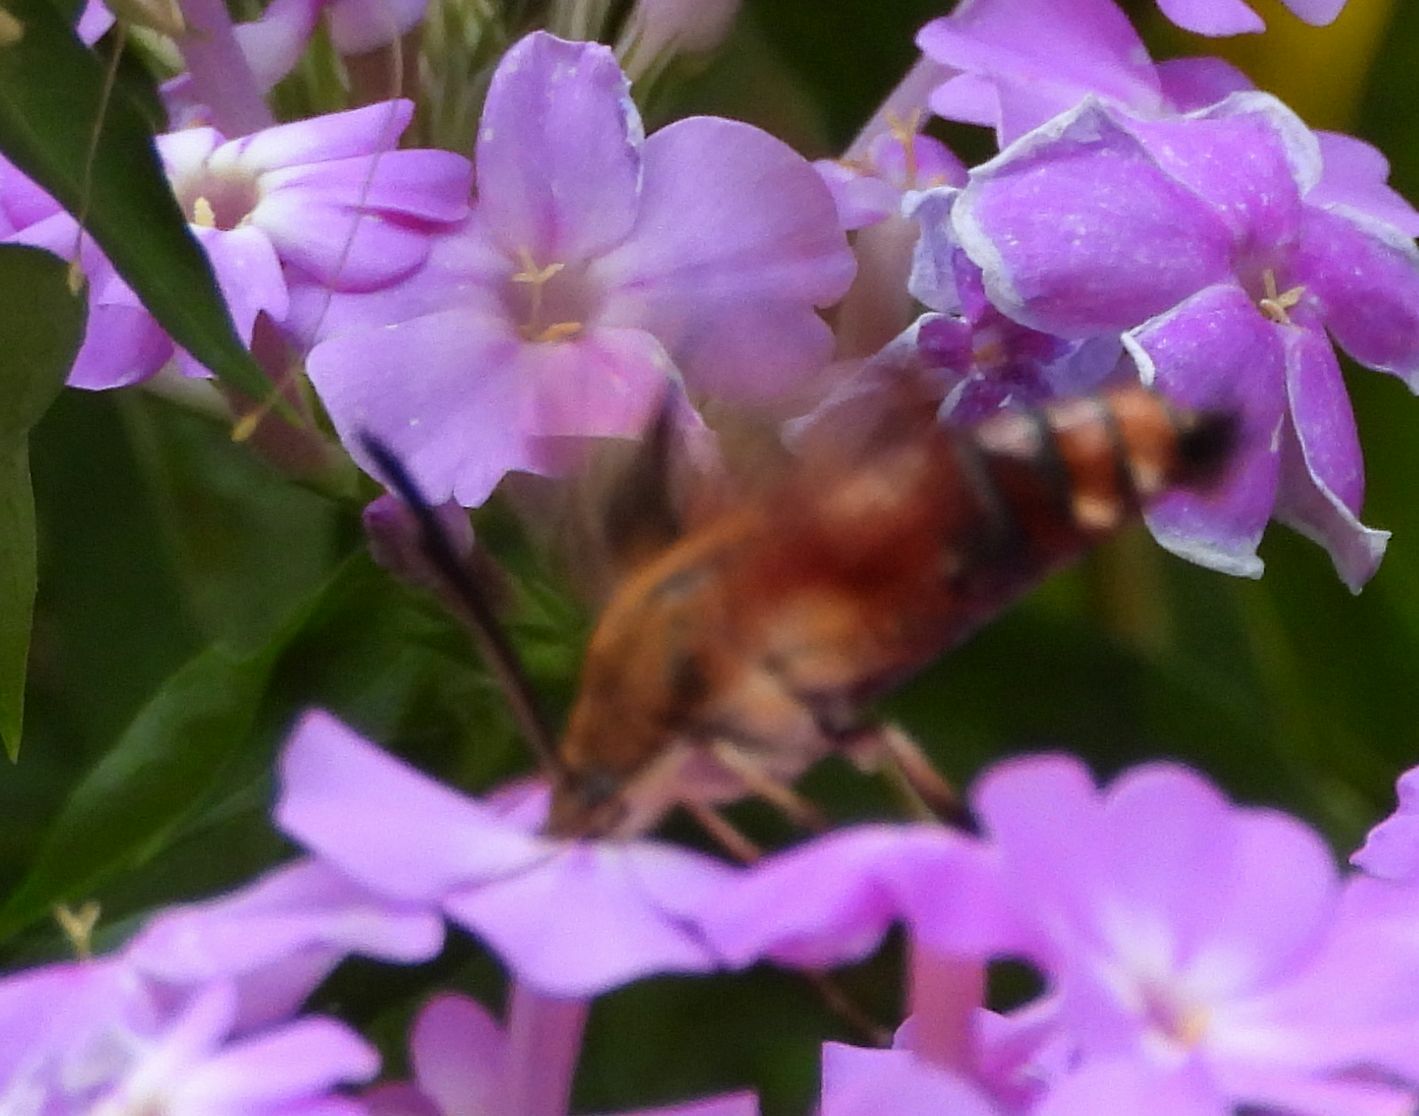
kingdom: Animalia
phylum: Arthropoda
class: Insecta
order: Lepidoptera
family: Sphingidae
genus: Hemaris
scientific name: Hemaris thysbe
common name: Common clear-wing
